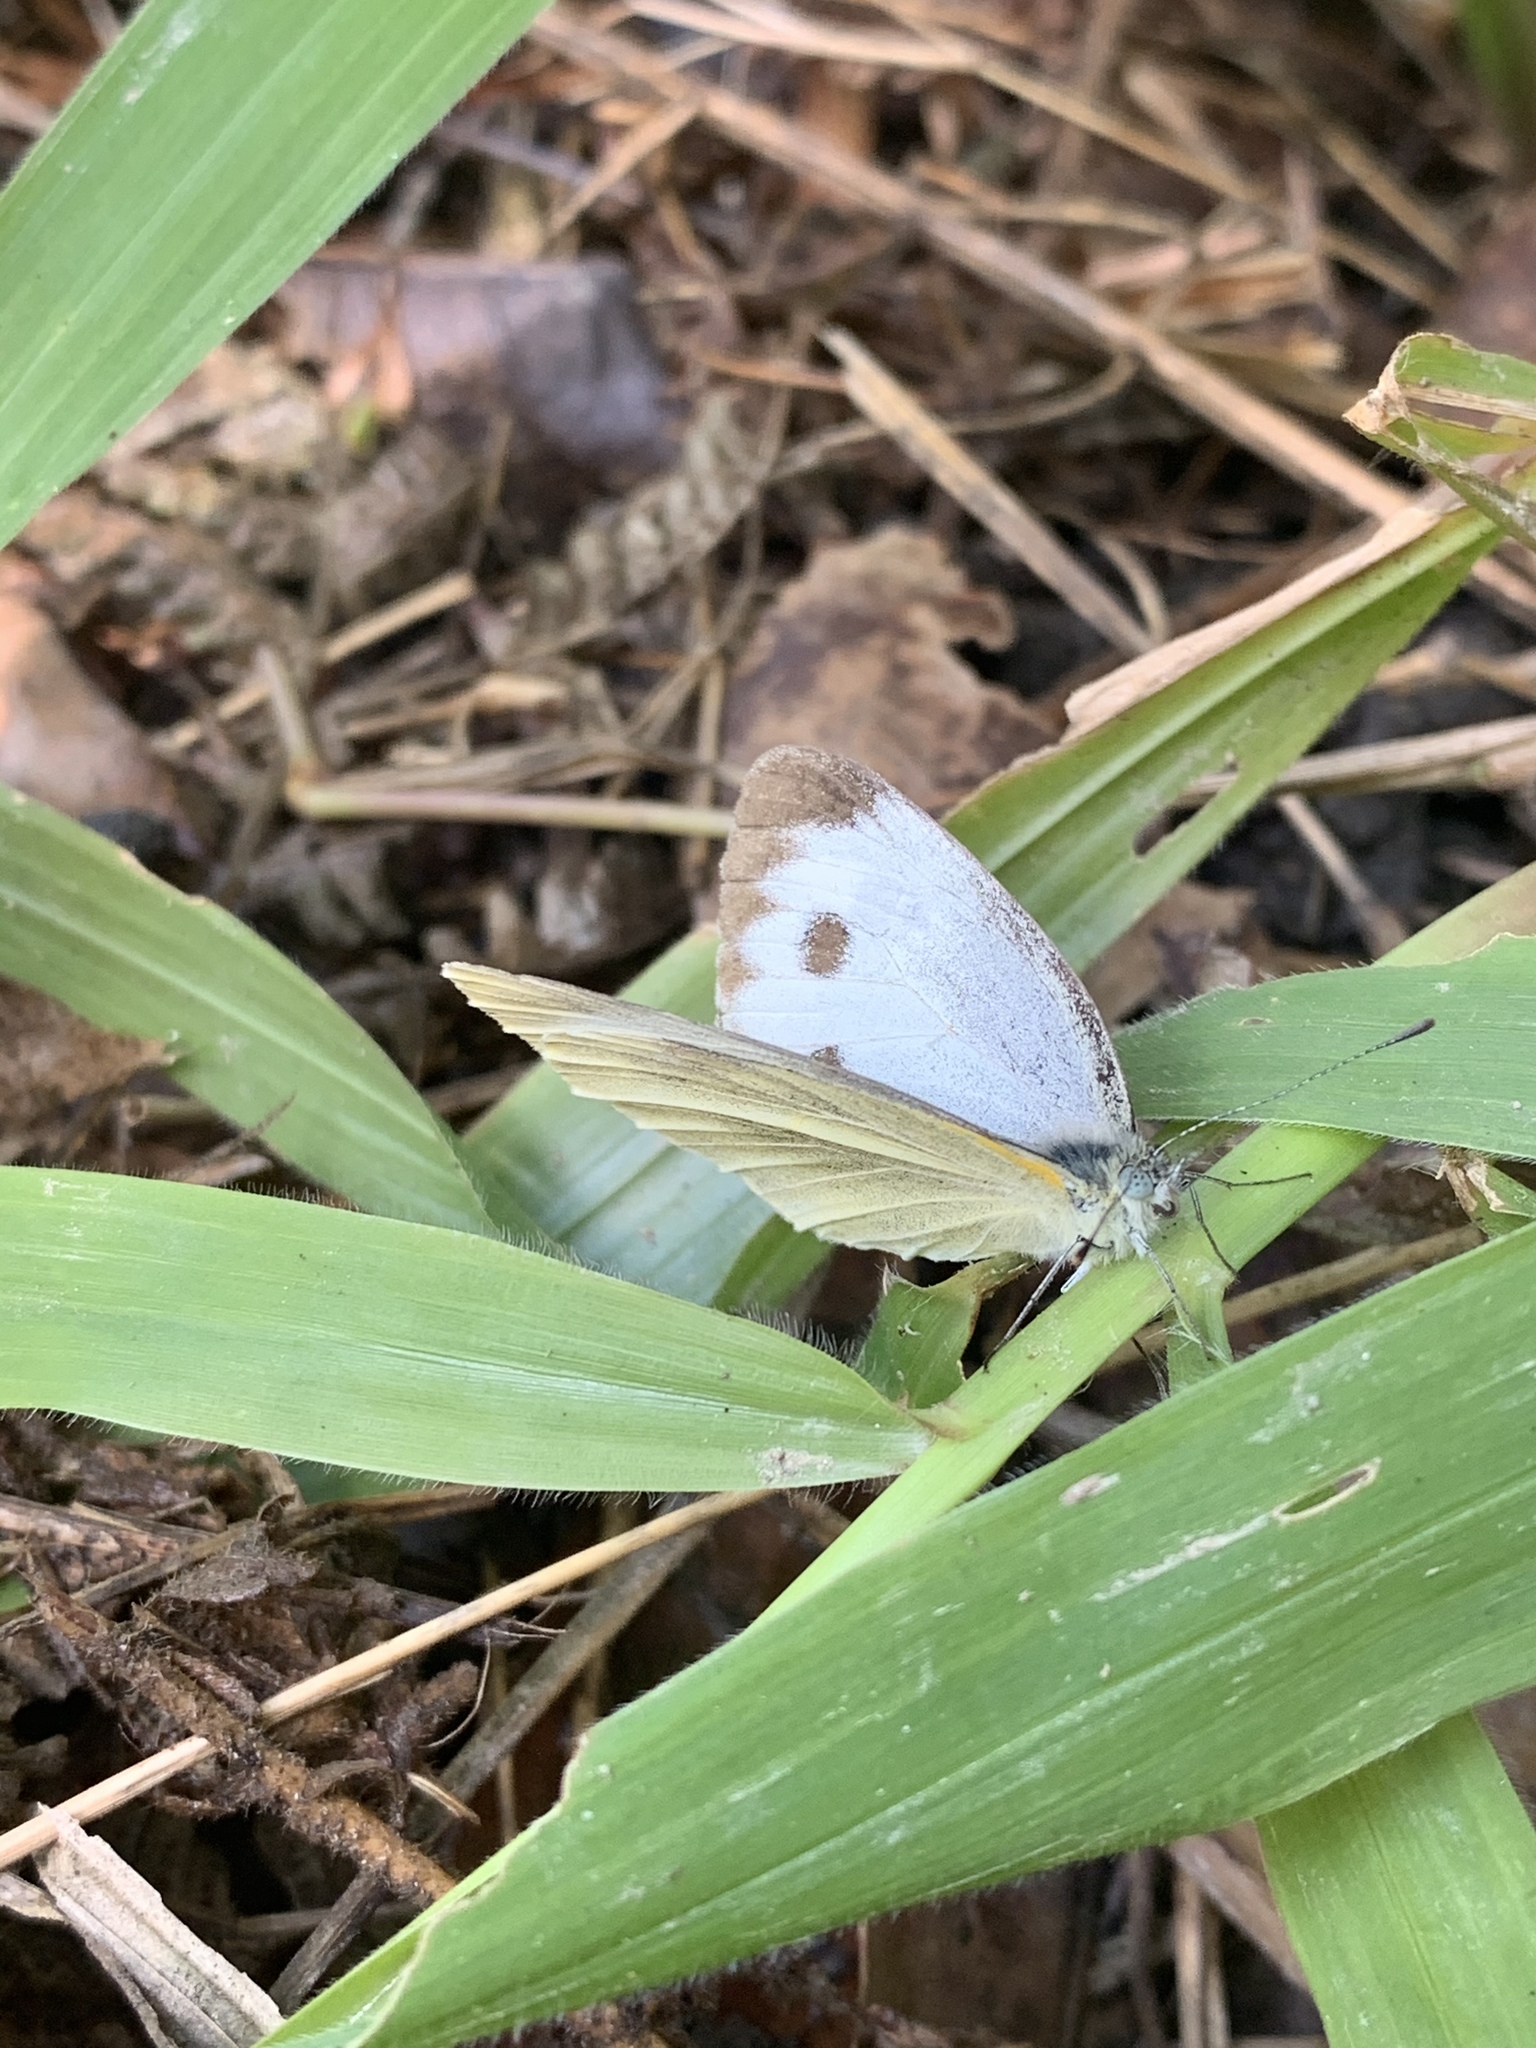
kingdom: Animalia
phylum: Arthropoda
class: Insecta
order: Lepidoptera
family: Pieridae
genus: Pieris
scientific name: Pieris canidia
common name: Indian cabbage white
